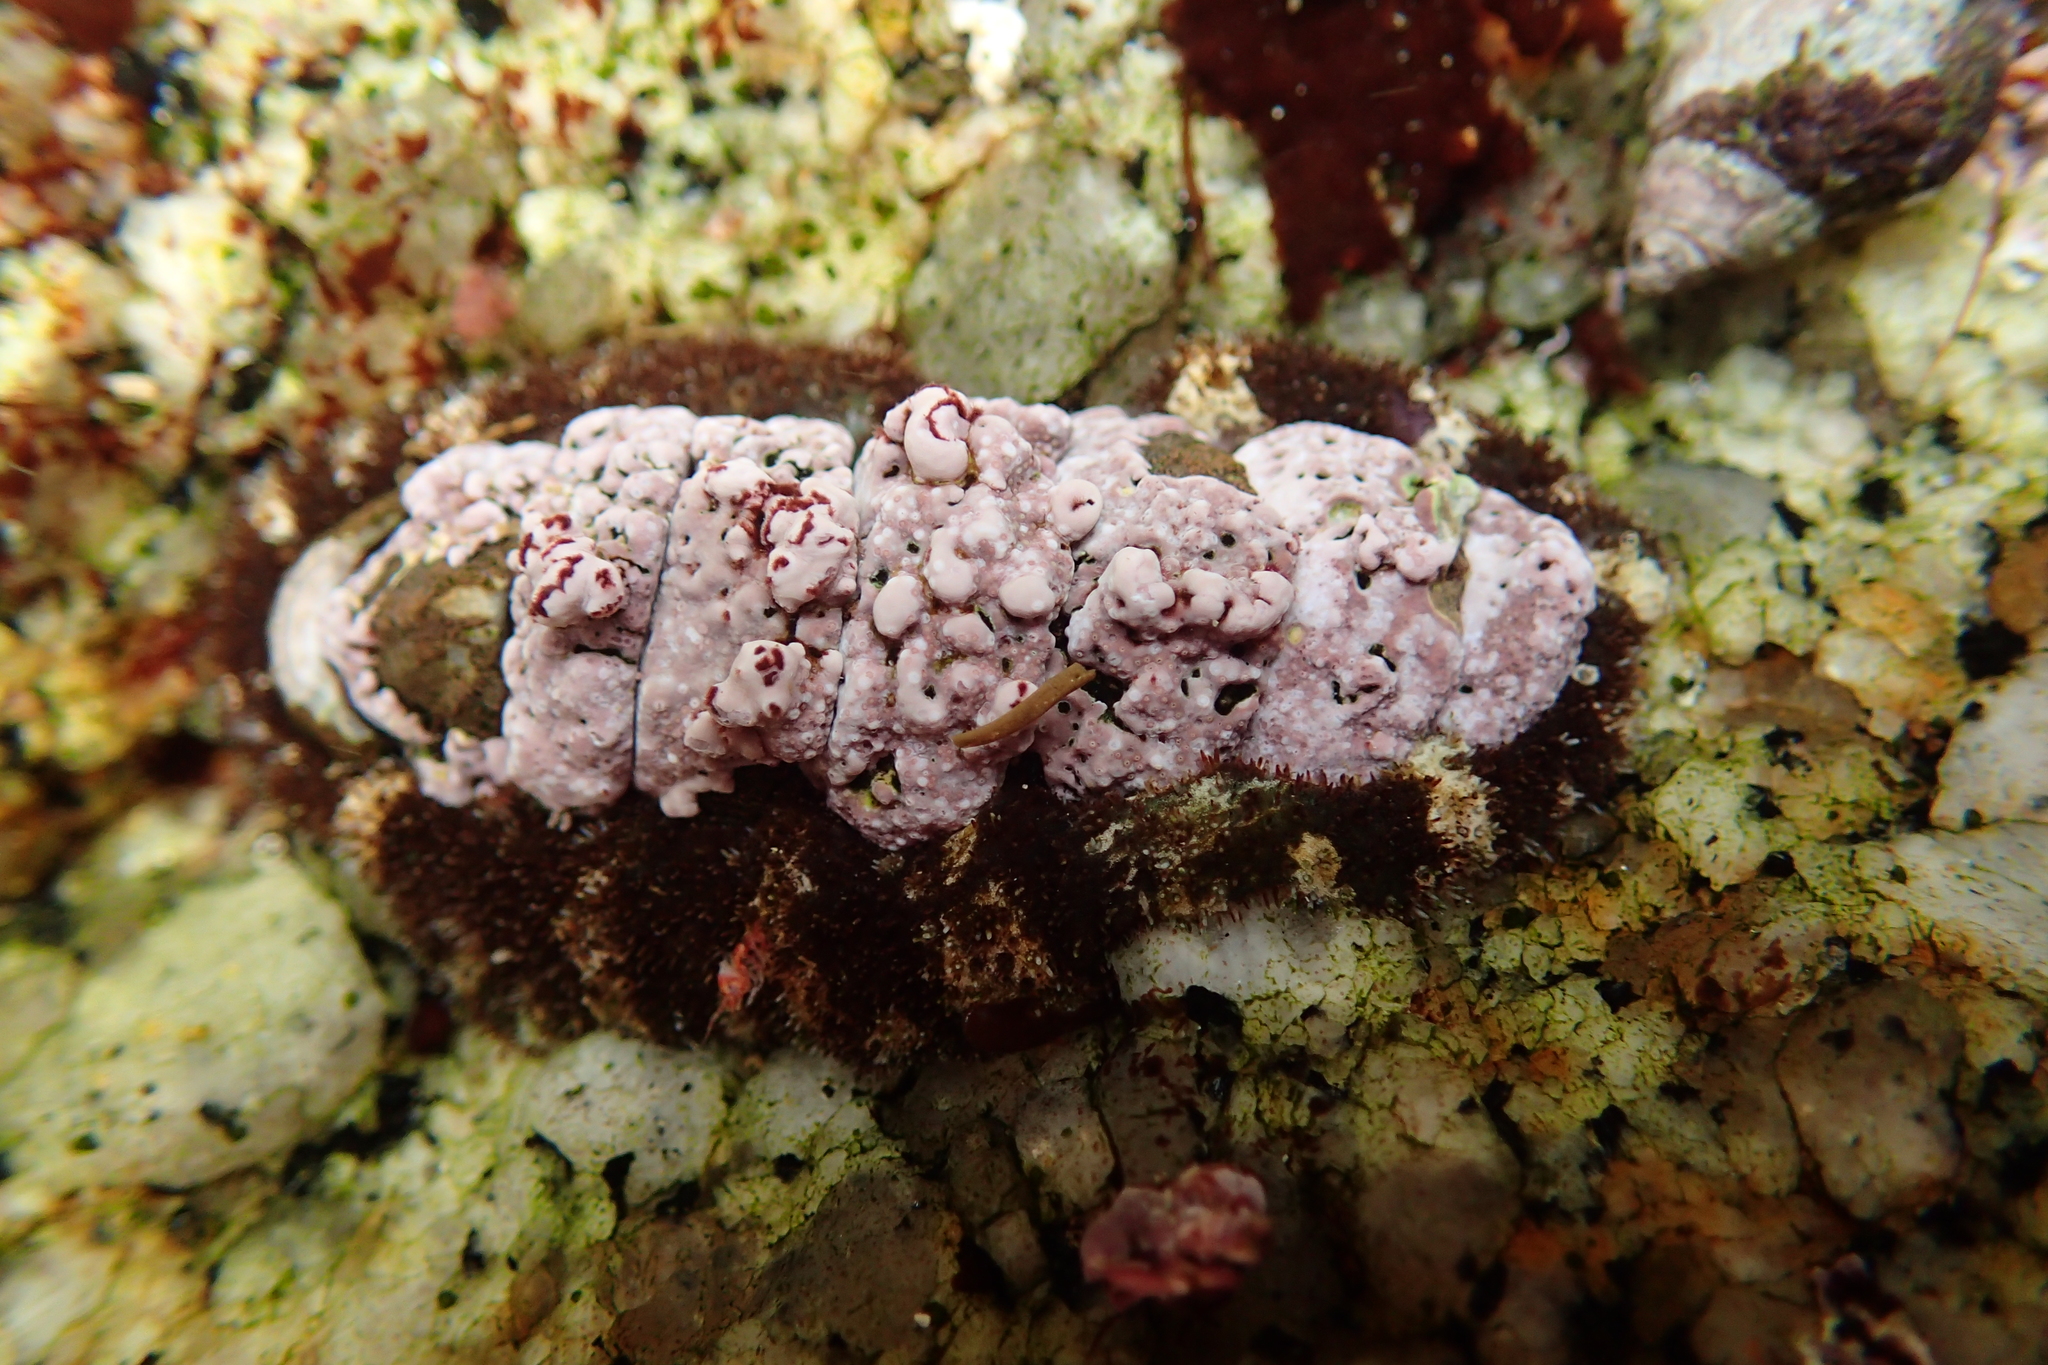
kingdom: Animalia
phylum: Mollusca
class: Polyplacophora
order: Chitonida
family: Tonicellidae
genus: Nuttallina
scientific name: Nuttallina californica
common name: California nuttall chiton
